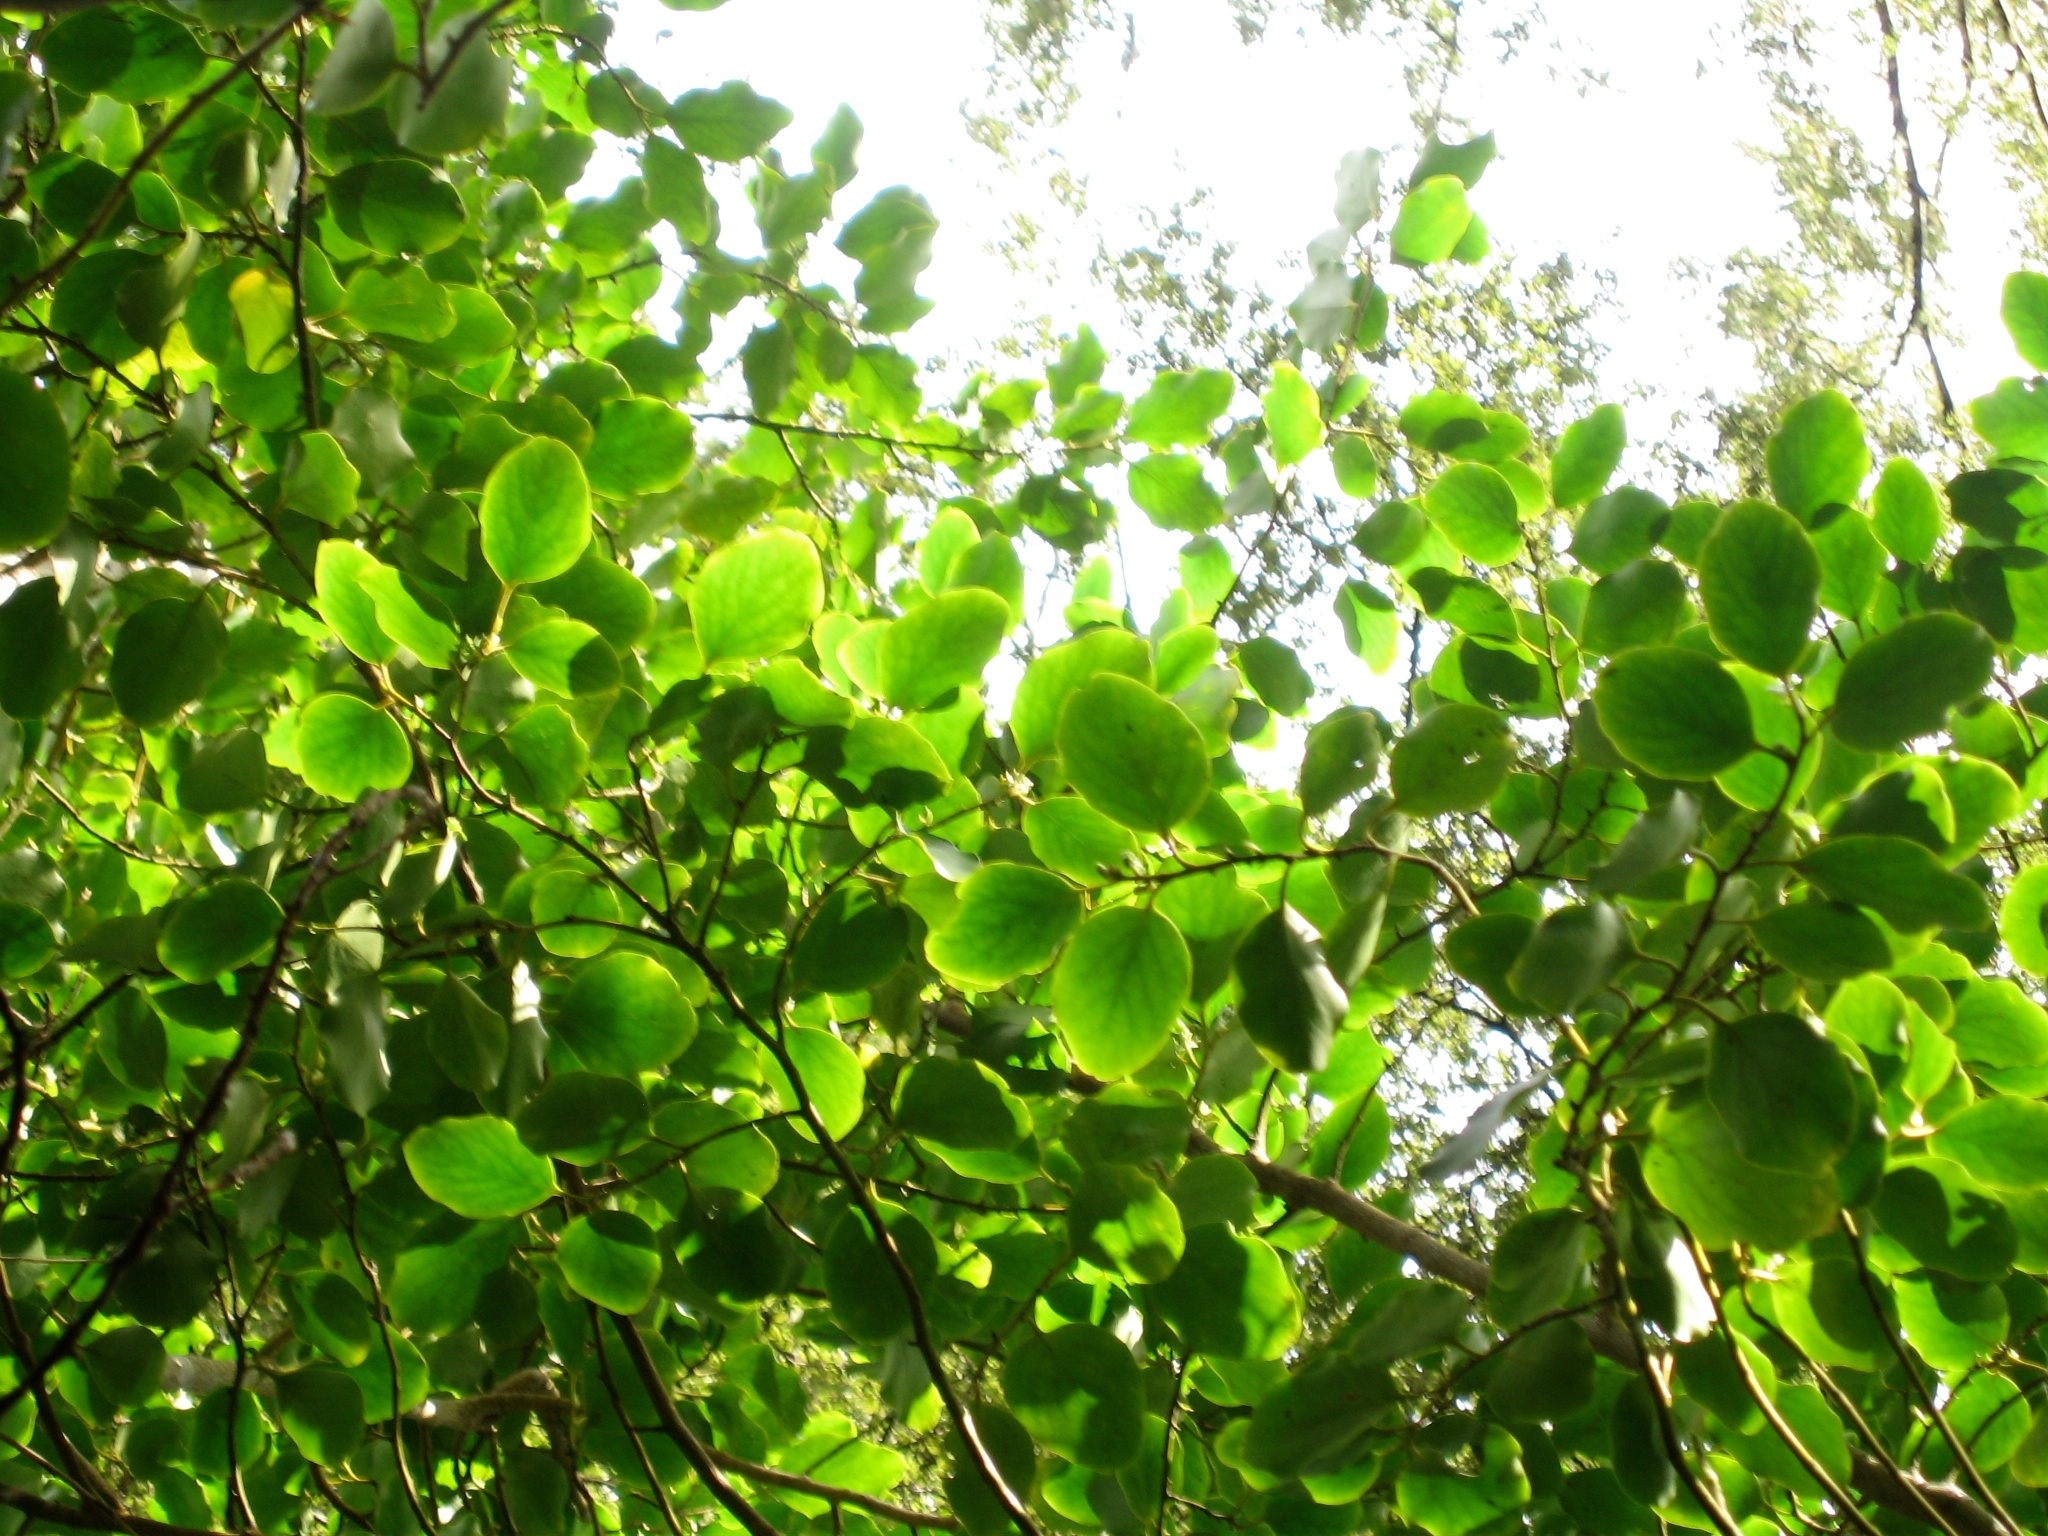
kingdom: Plantae
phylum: Tracheophyta
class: Magnoliopsida
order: Apiales
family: Griseliniaceae
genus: Griselinia
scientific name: Griselinia littoralis
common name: New zealand broadleaf
